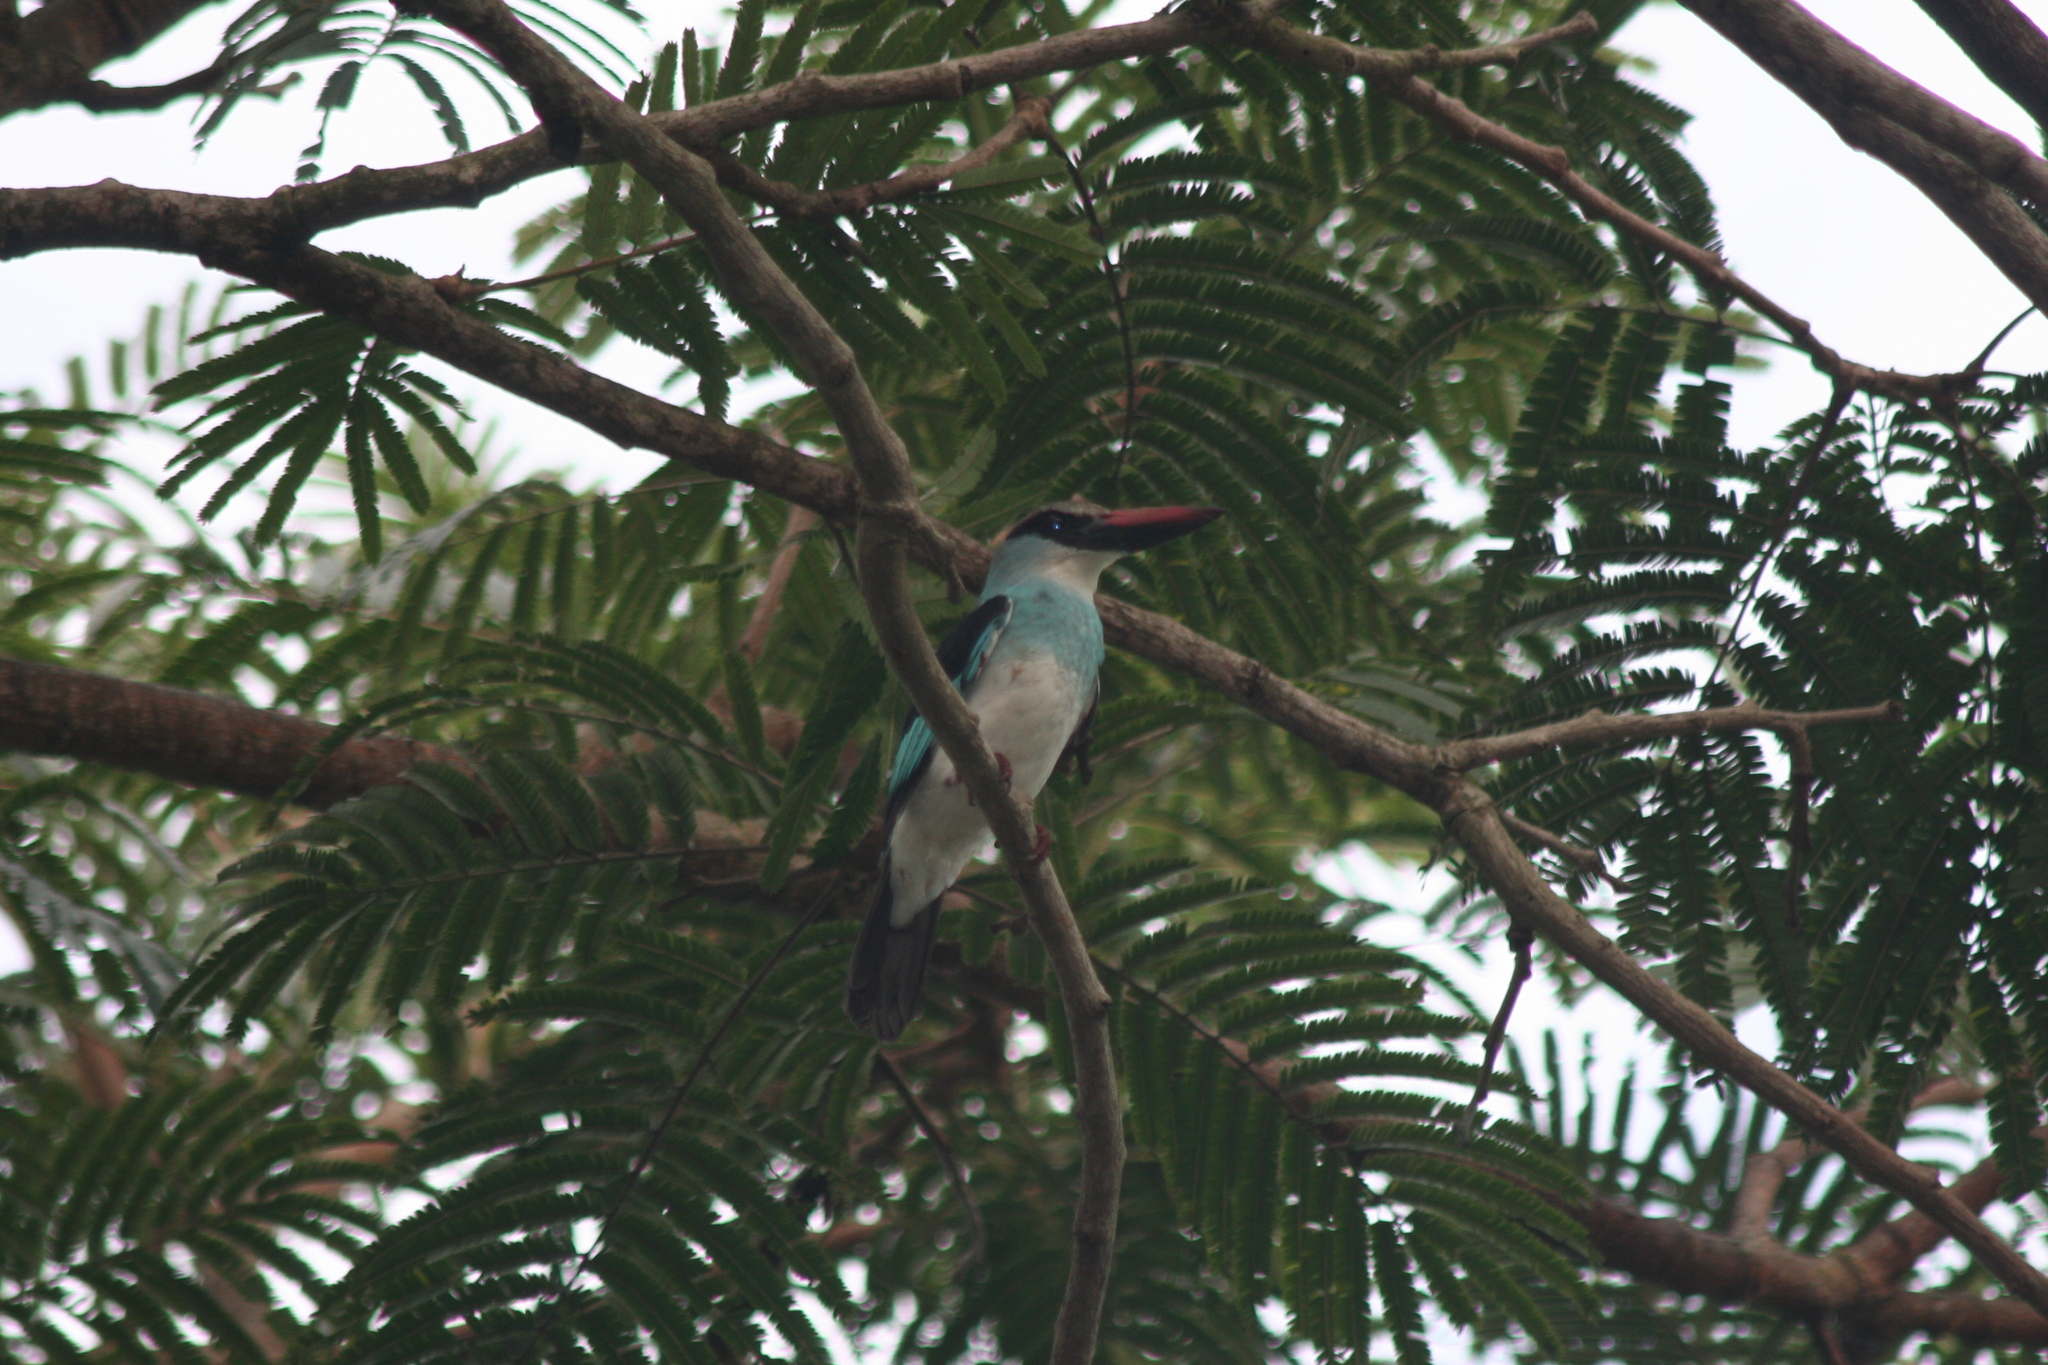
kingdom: Animalia
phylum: Chordata
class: Aves
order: Coraciiformes
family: Alcedinidae
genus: Halcyon
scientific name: Halcyon malimbica
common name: Blue-breasted kingfisher
